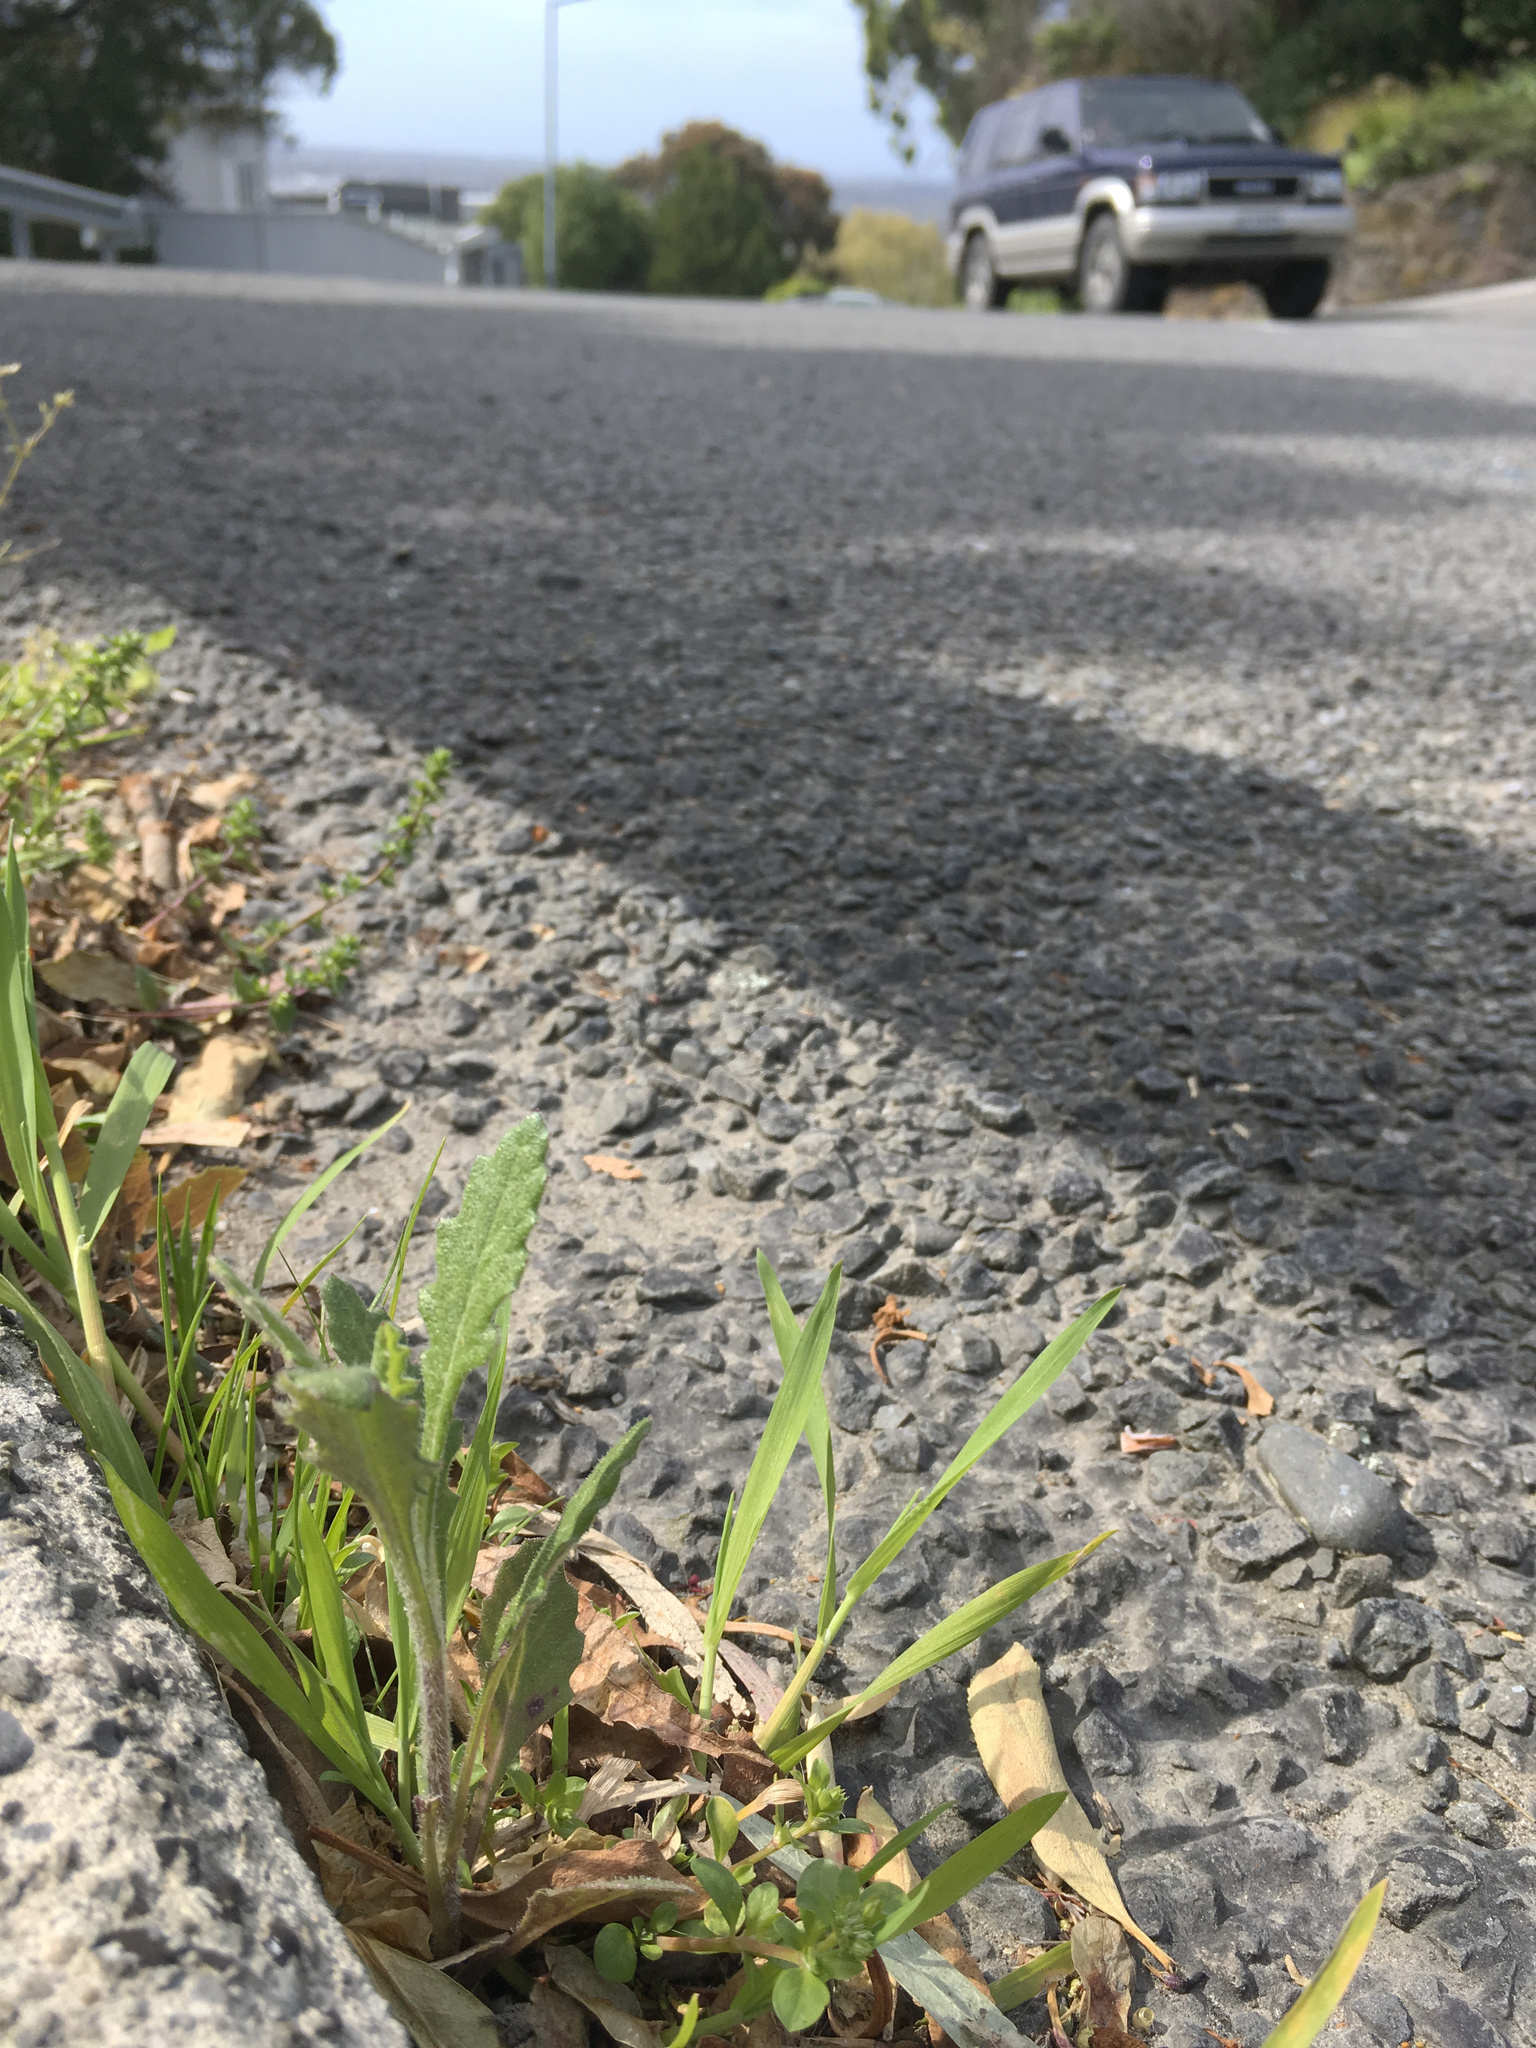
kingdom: Plantae
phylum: Tracheophyta
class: Magnoliopsida
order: Asterales
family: Asteraceae
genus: Senecio
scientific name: Senecio glomeratus
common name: Cutleaf burnweed
